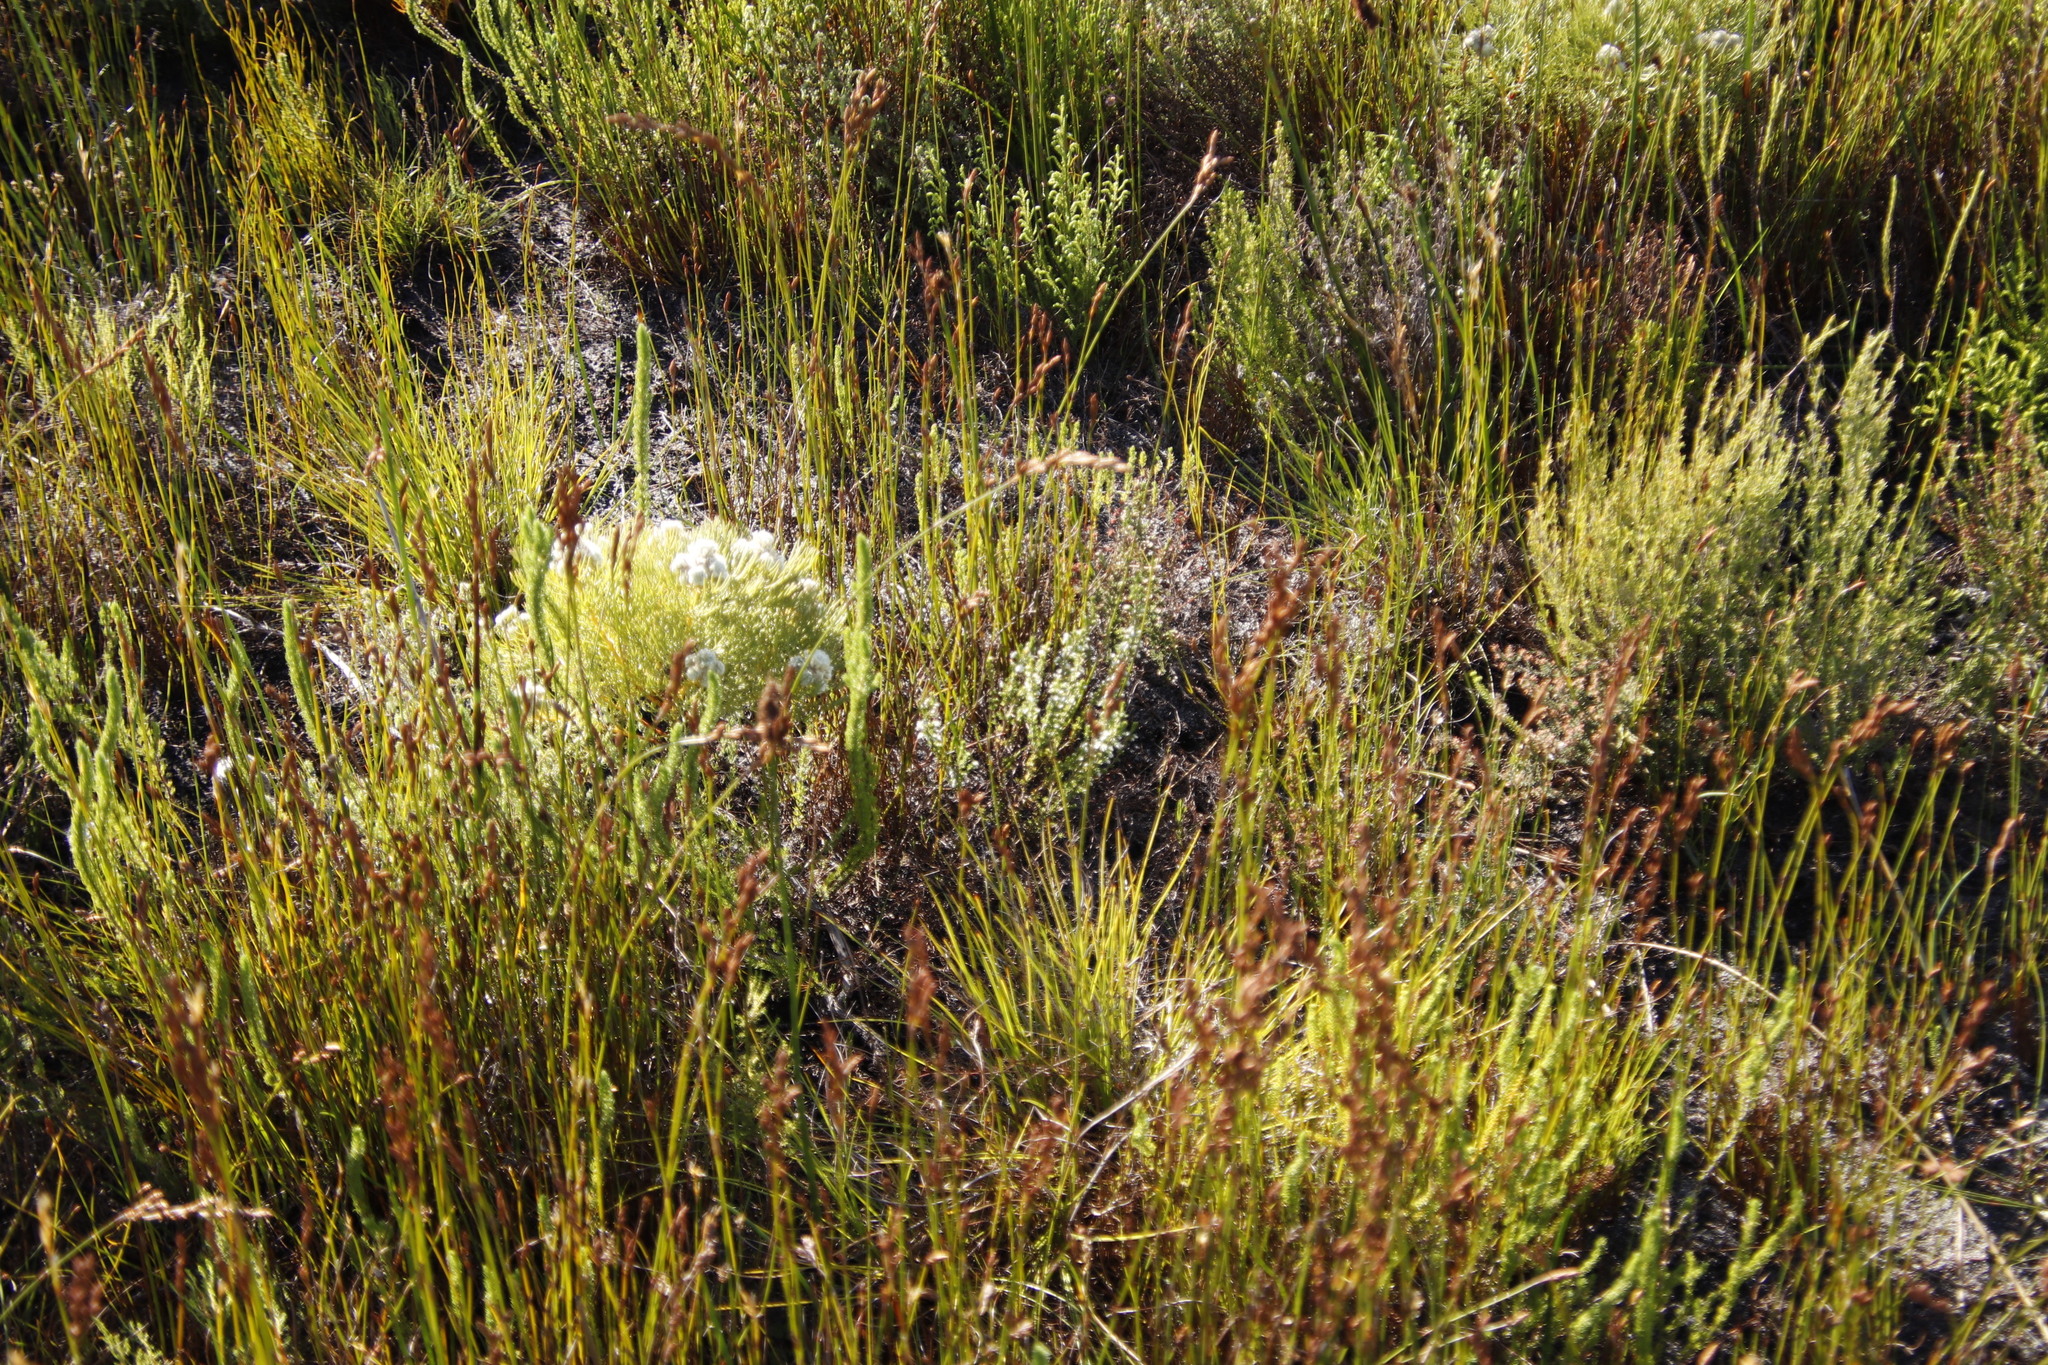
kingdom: Plantae
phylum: Tracheophyta
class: Magnoliopsida
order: Ericales
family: Ericaceae
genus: Erica
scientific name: Erica lasciva
